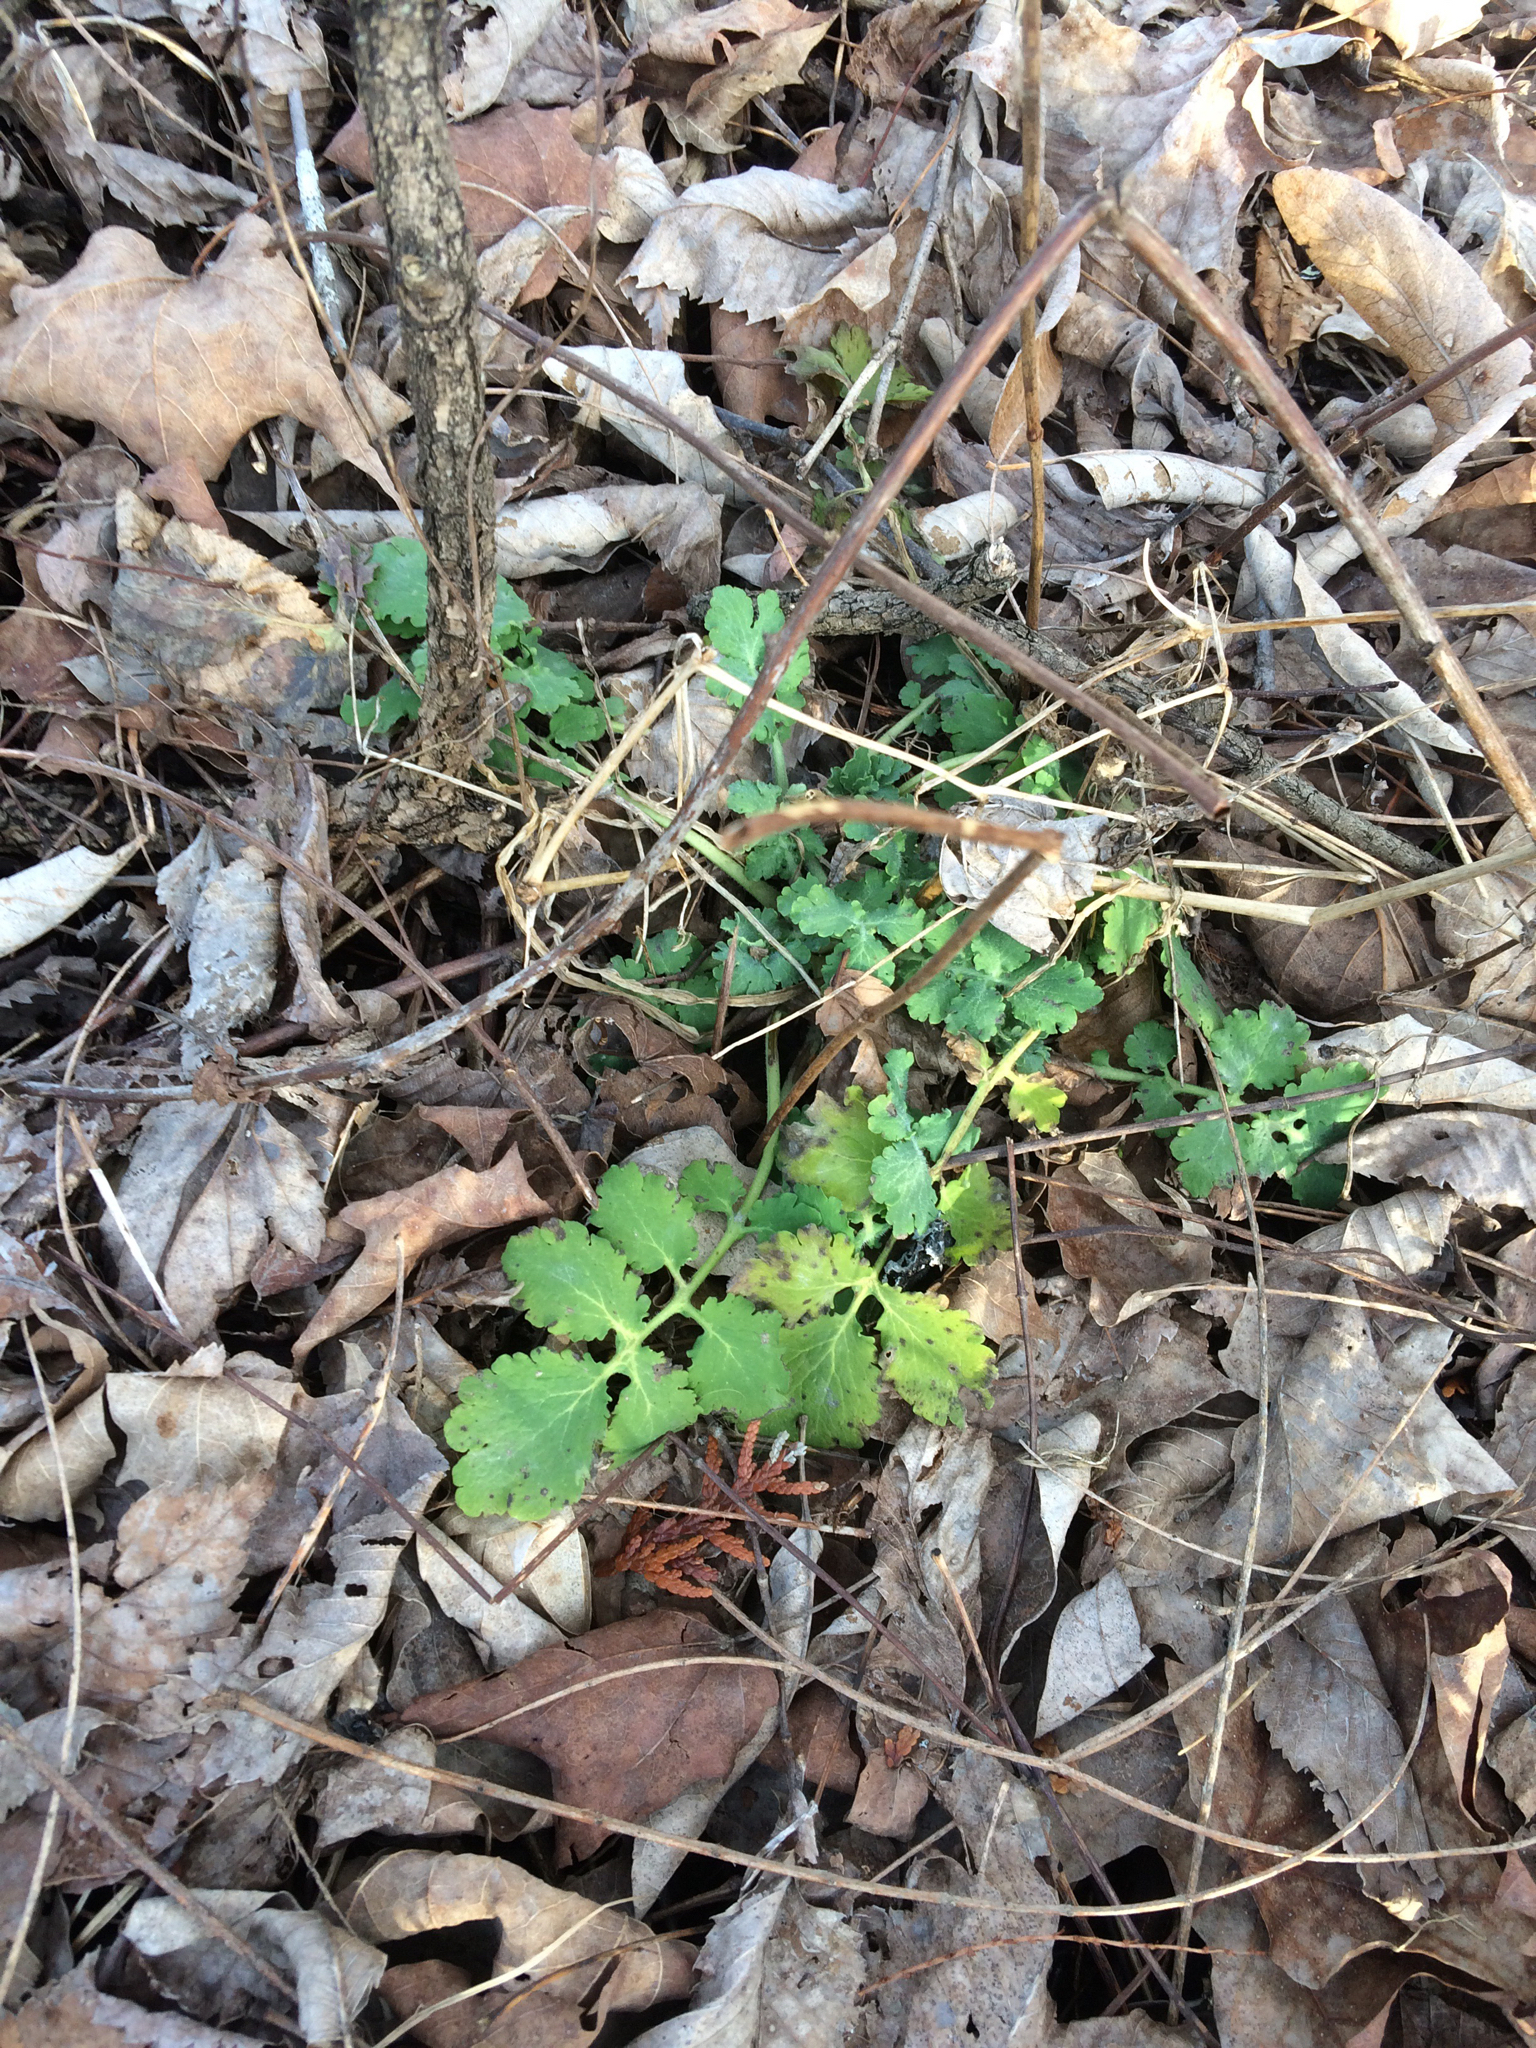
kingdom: Plantae
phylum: Tracheophyta
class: Magnoliopsida
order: Ranunculales
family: Papaveraceae
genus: Chelidonium
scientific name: Chelidonium majus
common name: Greater celandine
